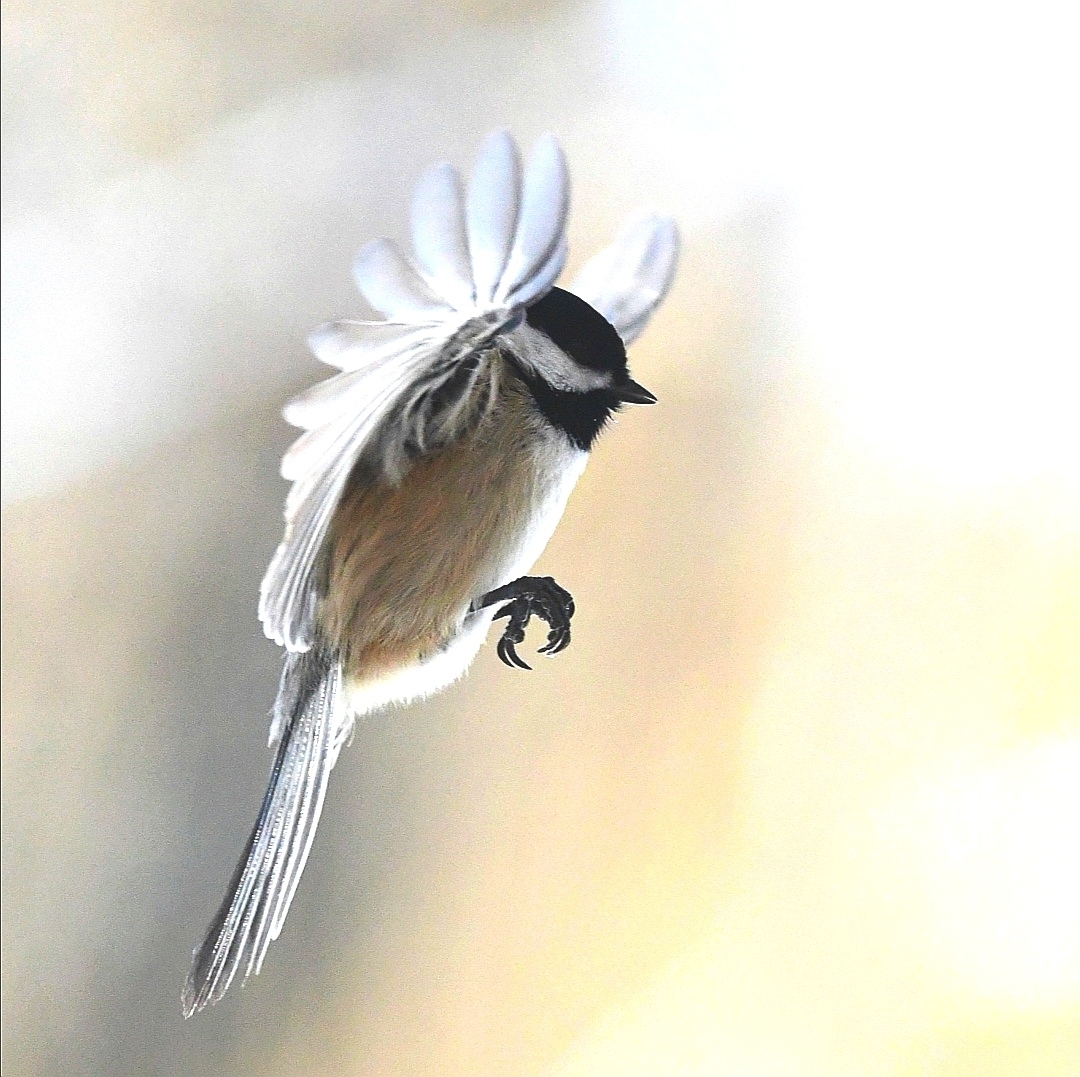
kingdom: Animalia
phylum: Chordata
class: Aves
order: Passeriformes
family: Paridae
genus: Poecile
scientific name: Poecile atricapillus
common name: Black-capped chickadee
